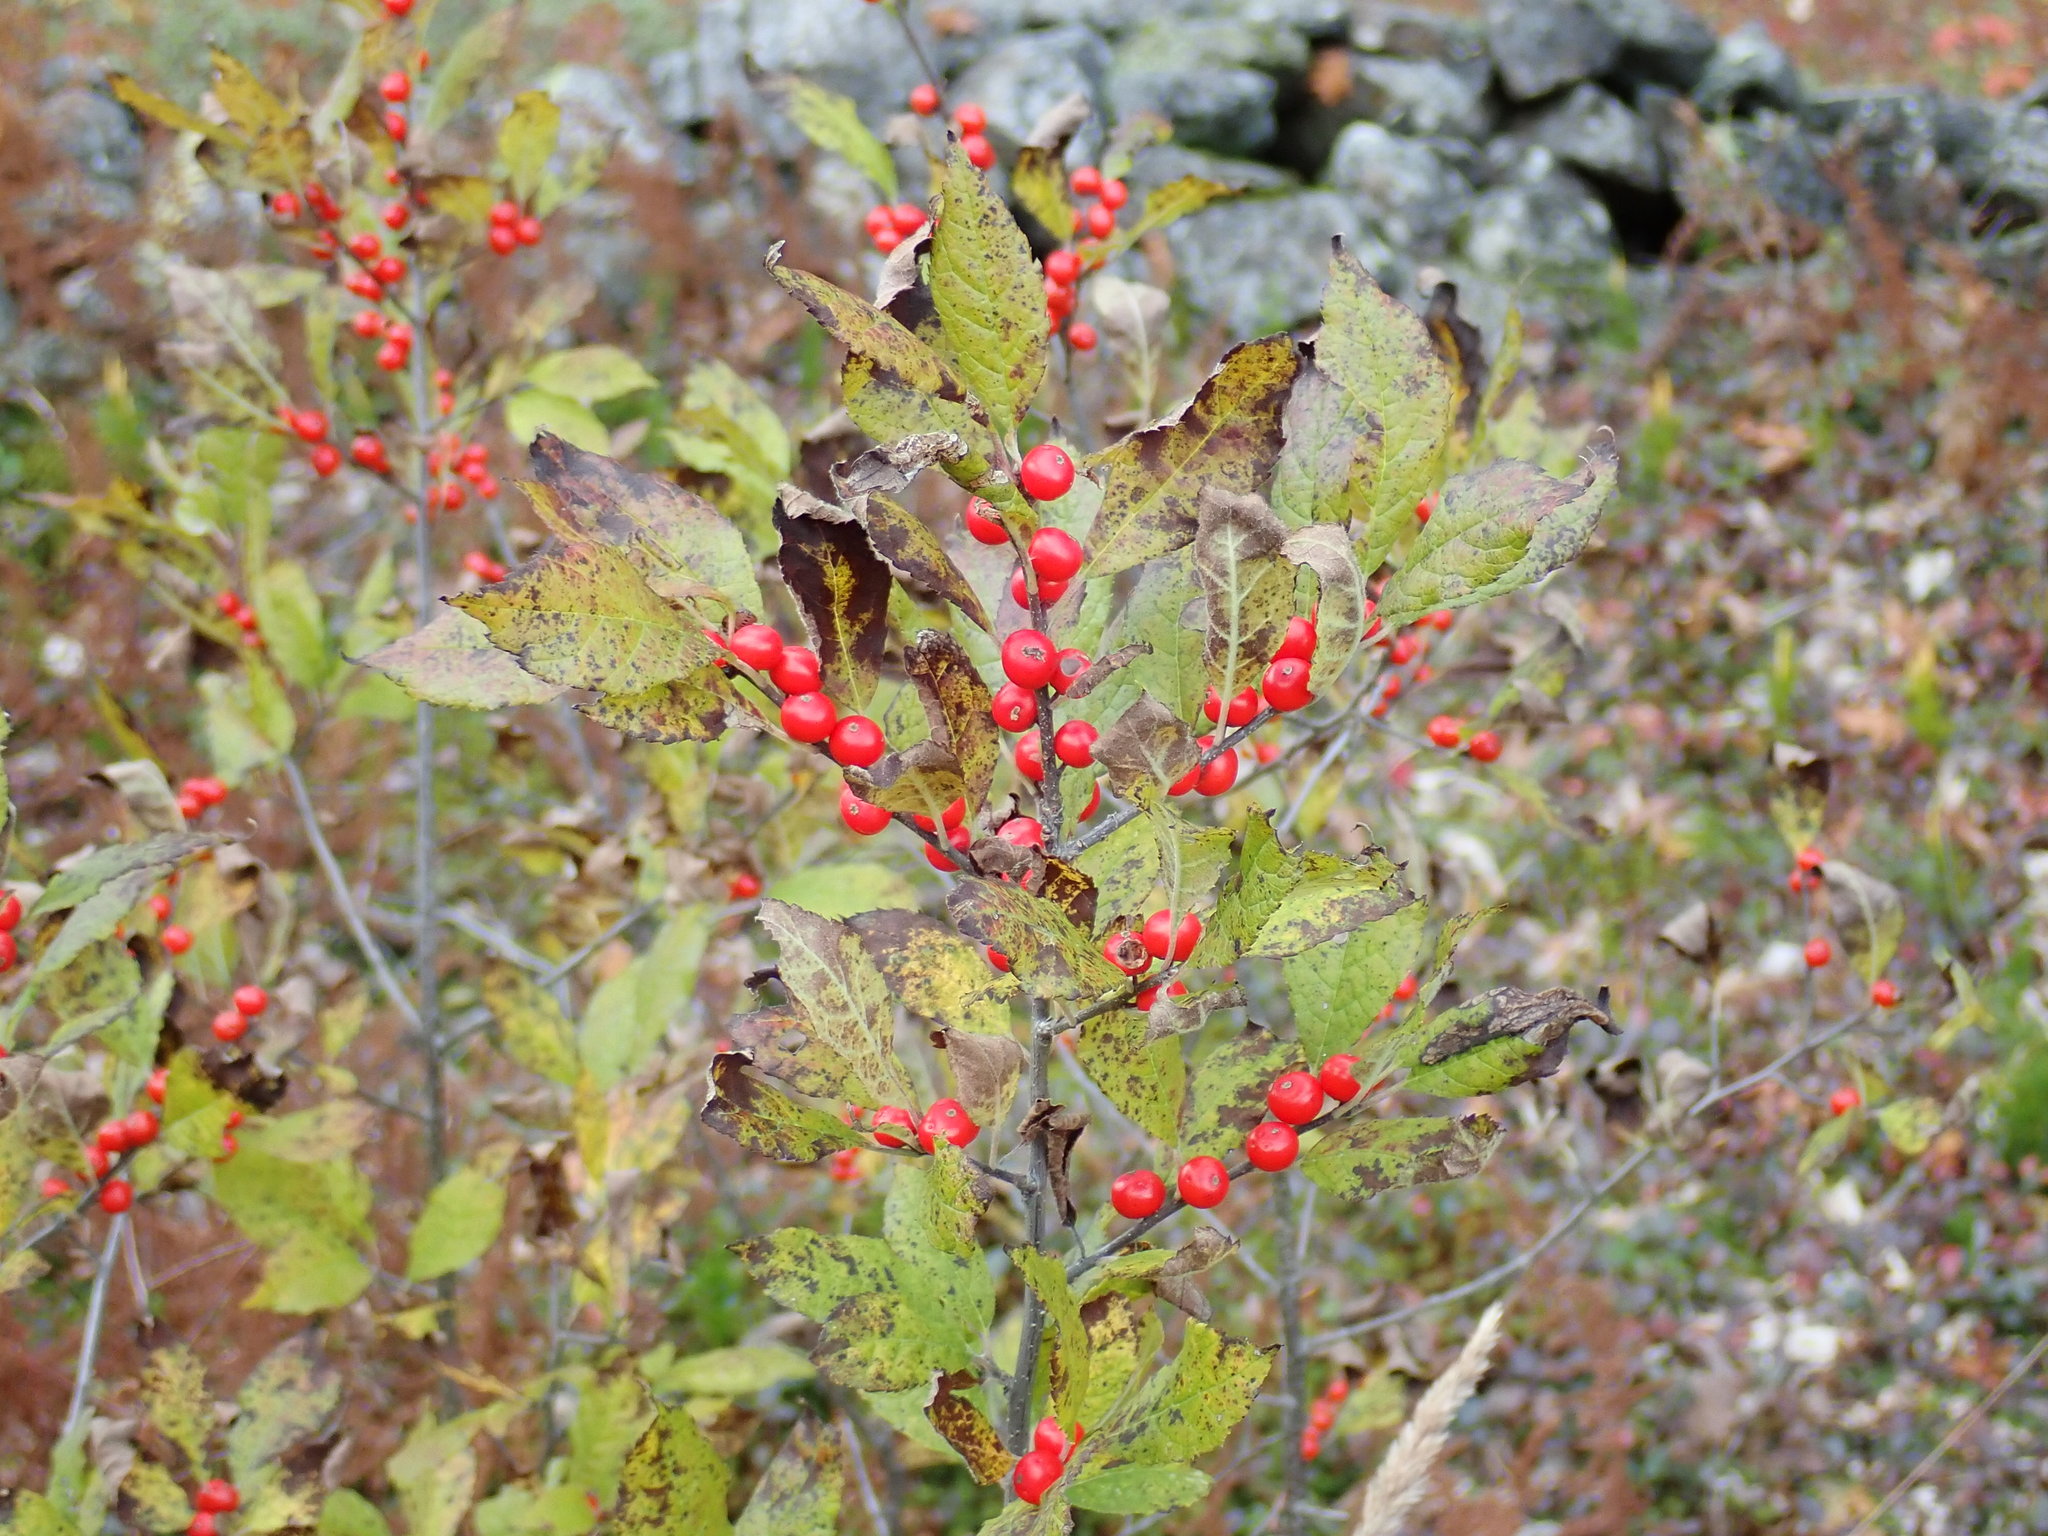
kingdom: Plantae
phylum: Tracheophyta
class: Magnoliopsida
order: Aquifoliales
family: Aquifoliaceae
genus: Ilex
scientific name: Ilex verticillata
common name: Virginia winterberry
